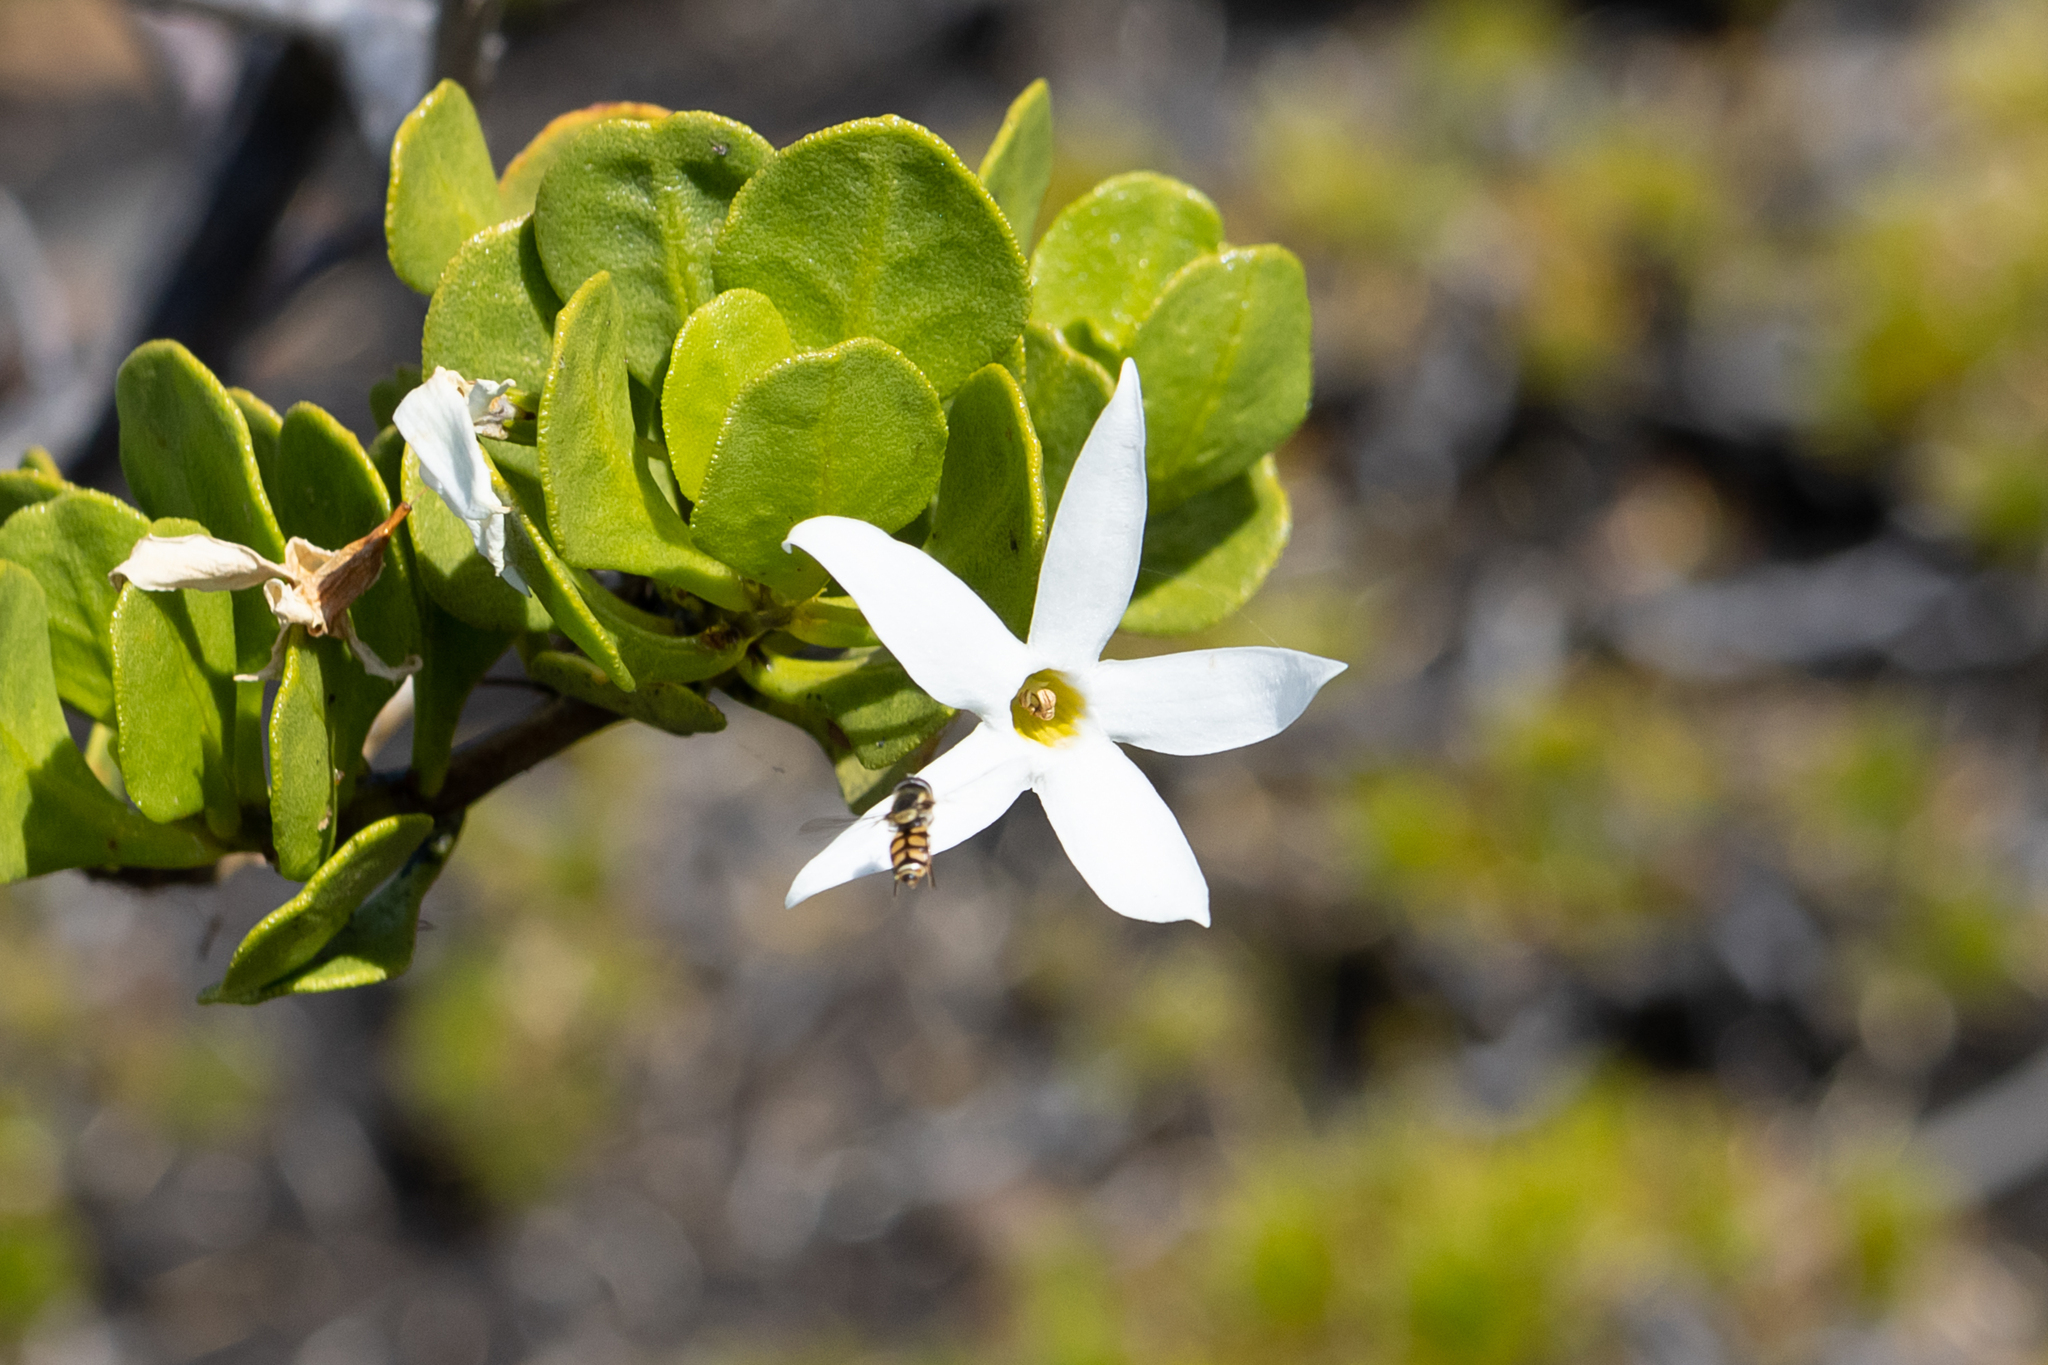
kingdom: Plantae
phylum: Tracheophyta
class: Magnoliopsida
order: Solanales
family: Solanaceae
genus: Anthocercis
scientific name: Anthocercis viscosa
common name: Sticky tailflower
